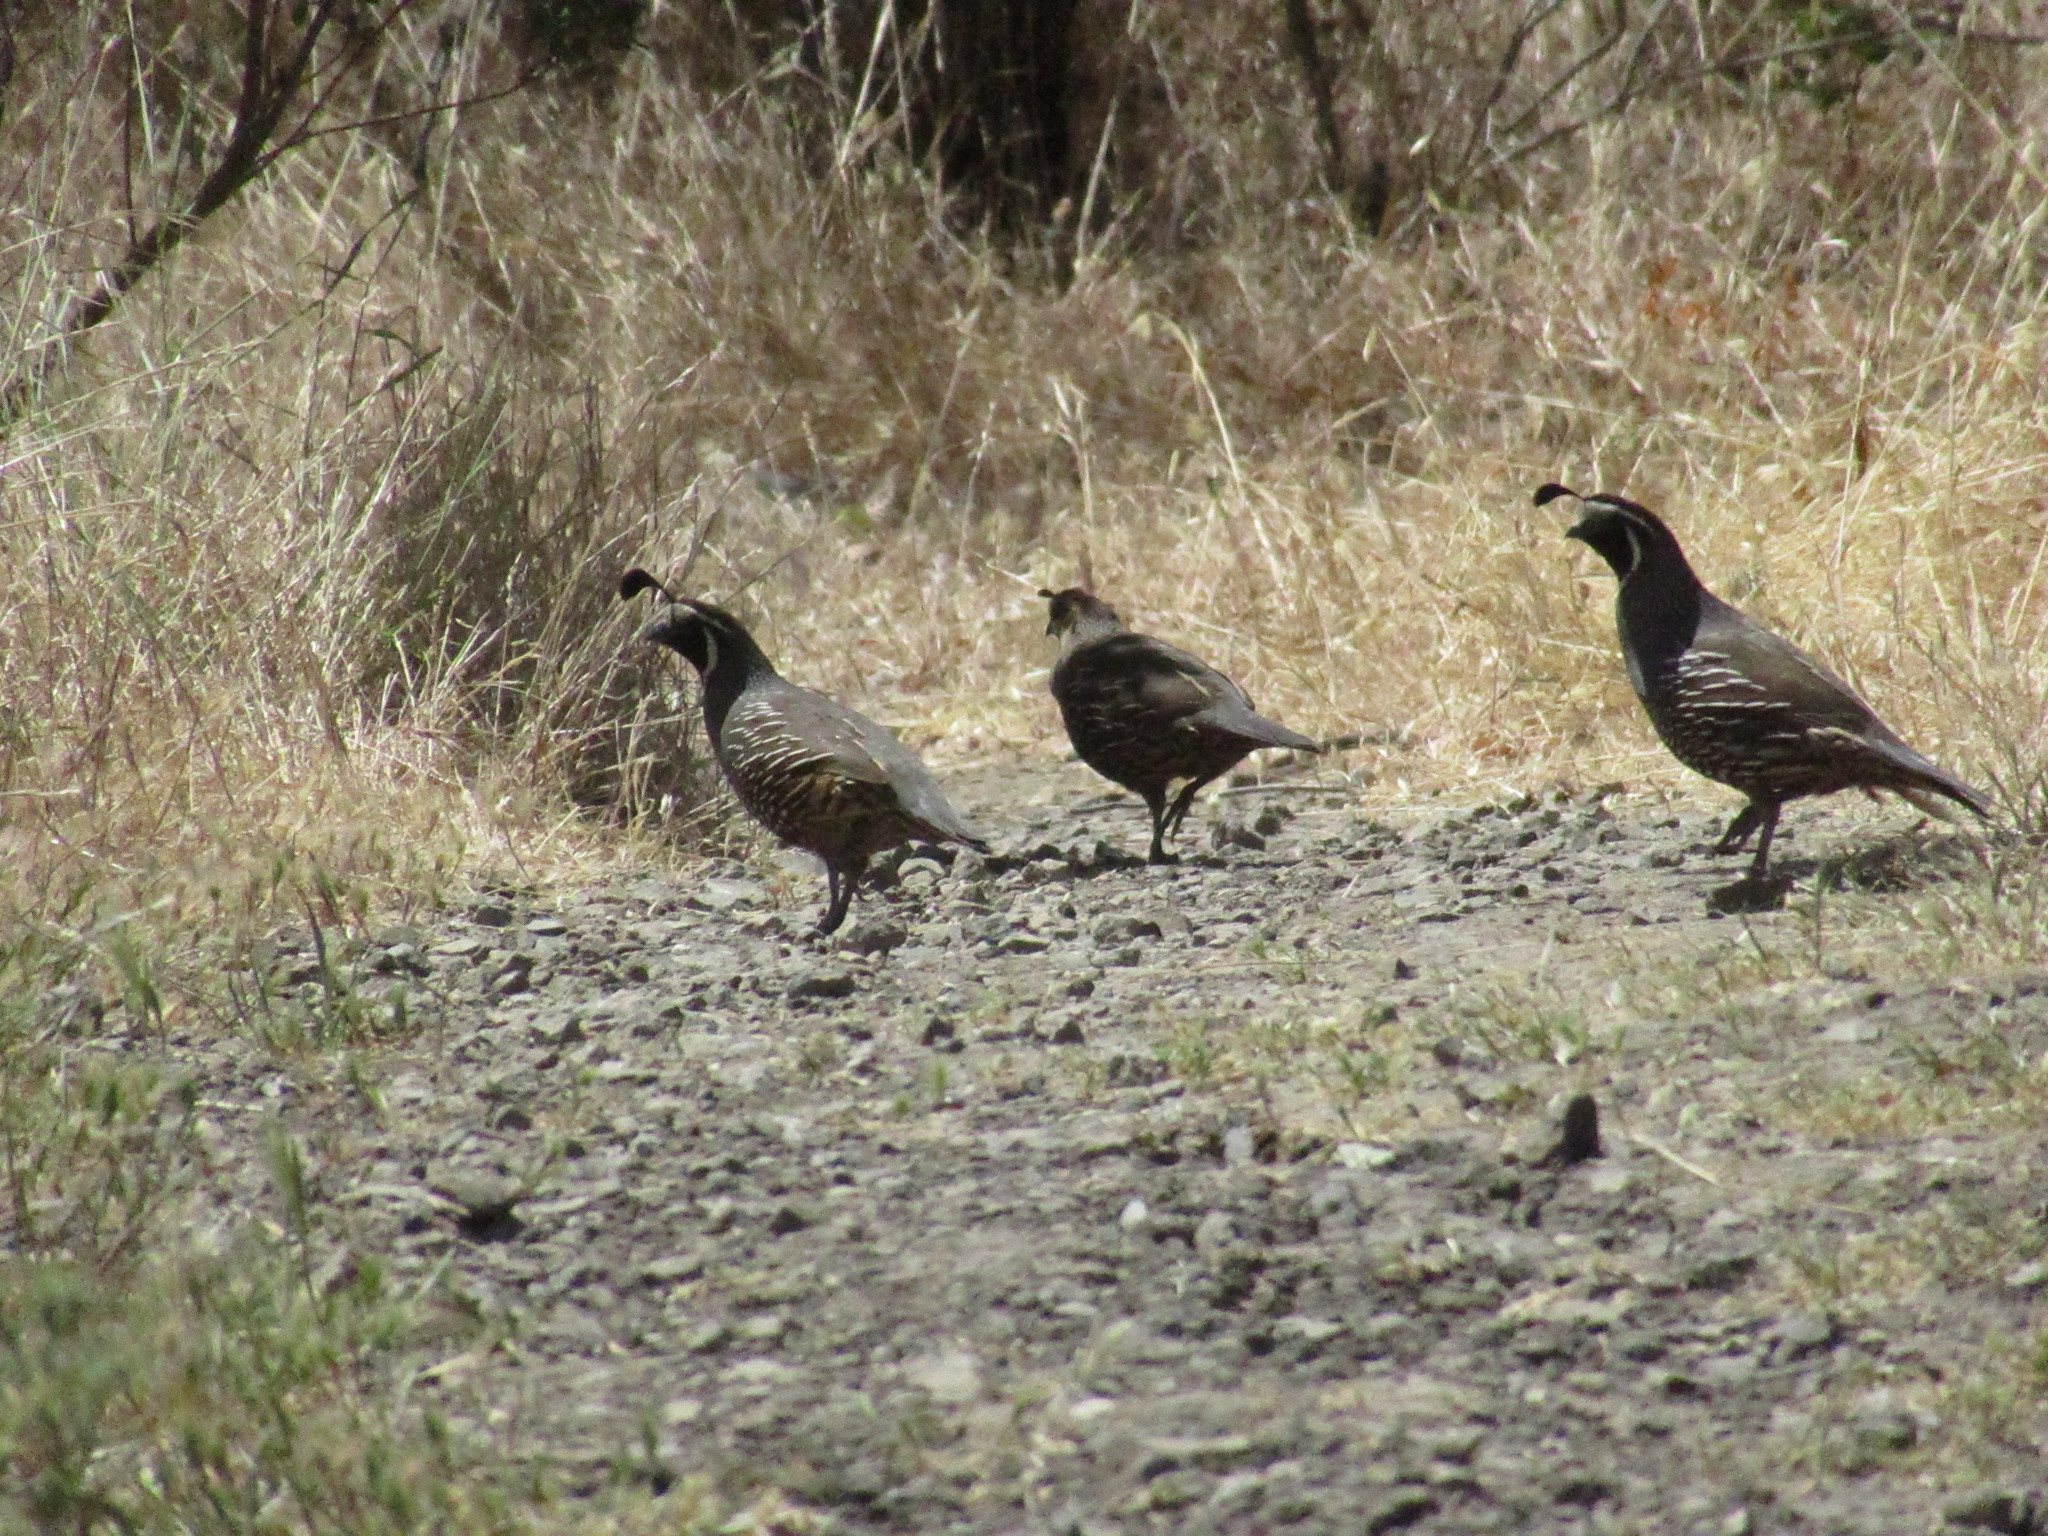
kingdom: Animalia
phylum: Chordata
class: Aves
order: Galliformes
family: Odontophoridae
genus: Callipepla
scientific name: Callipepla californica
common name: California quail
